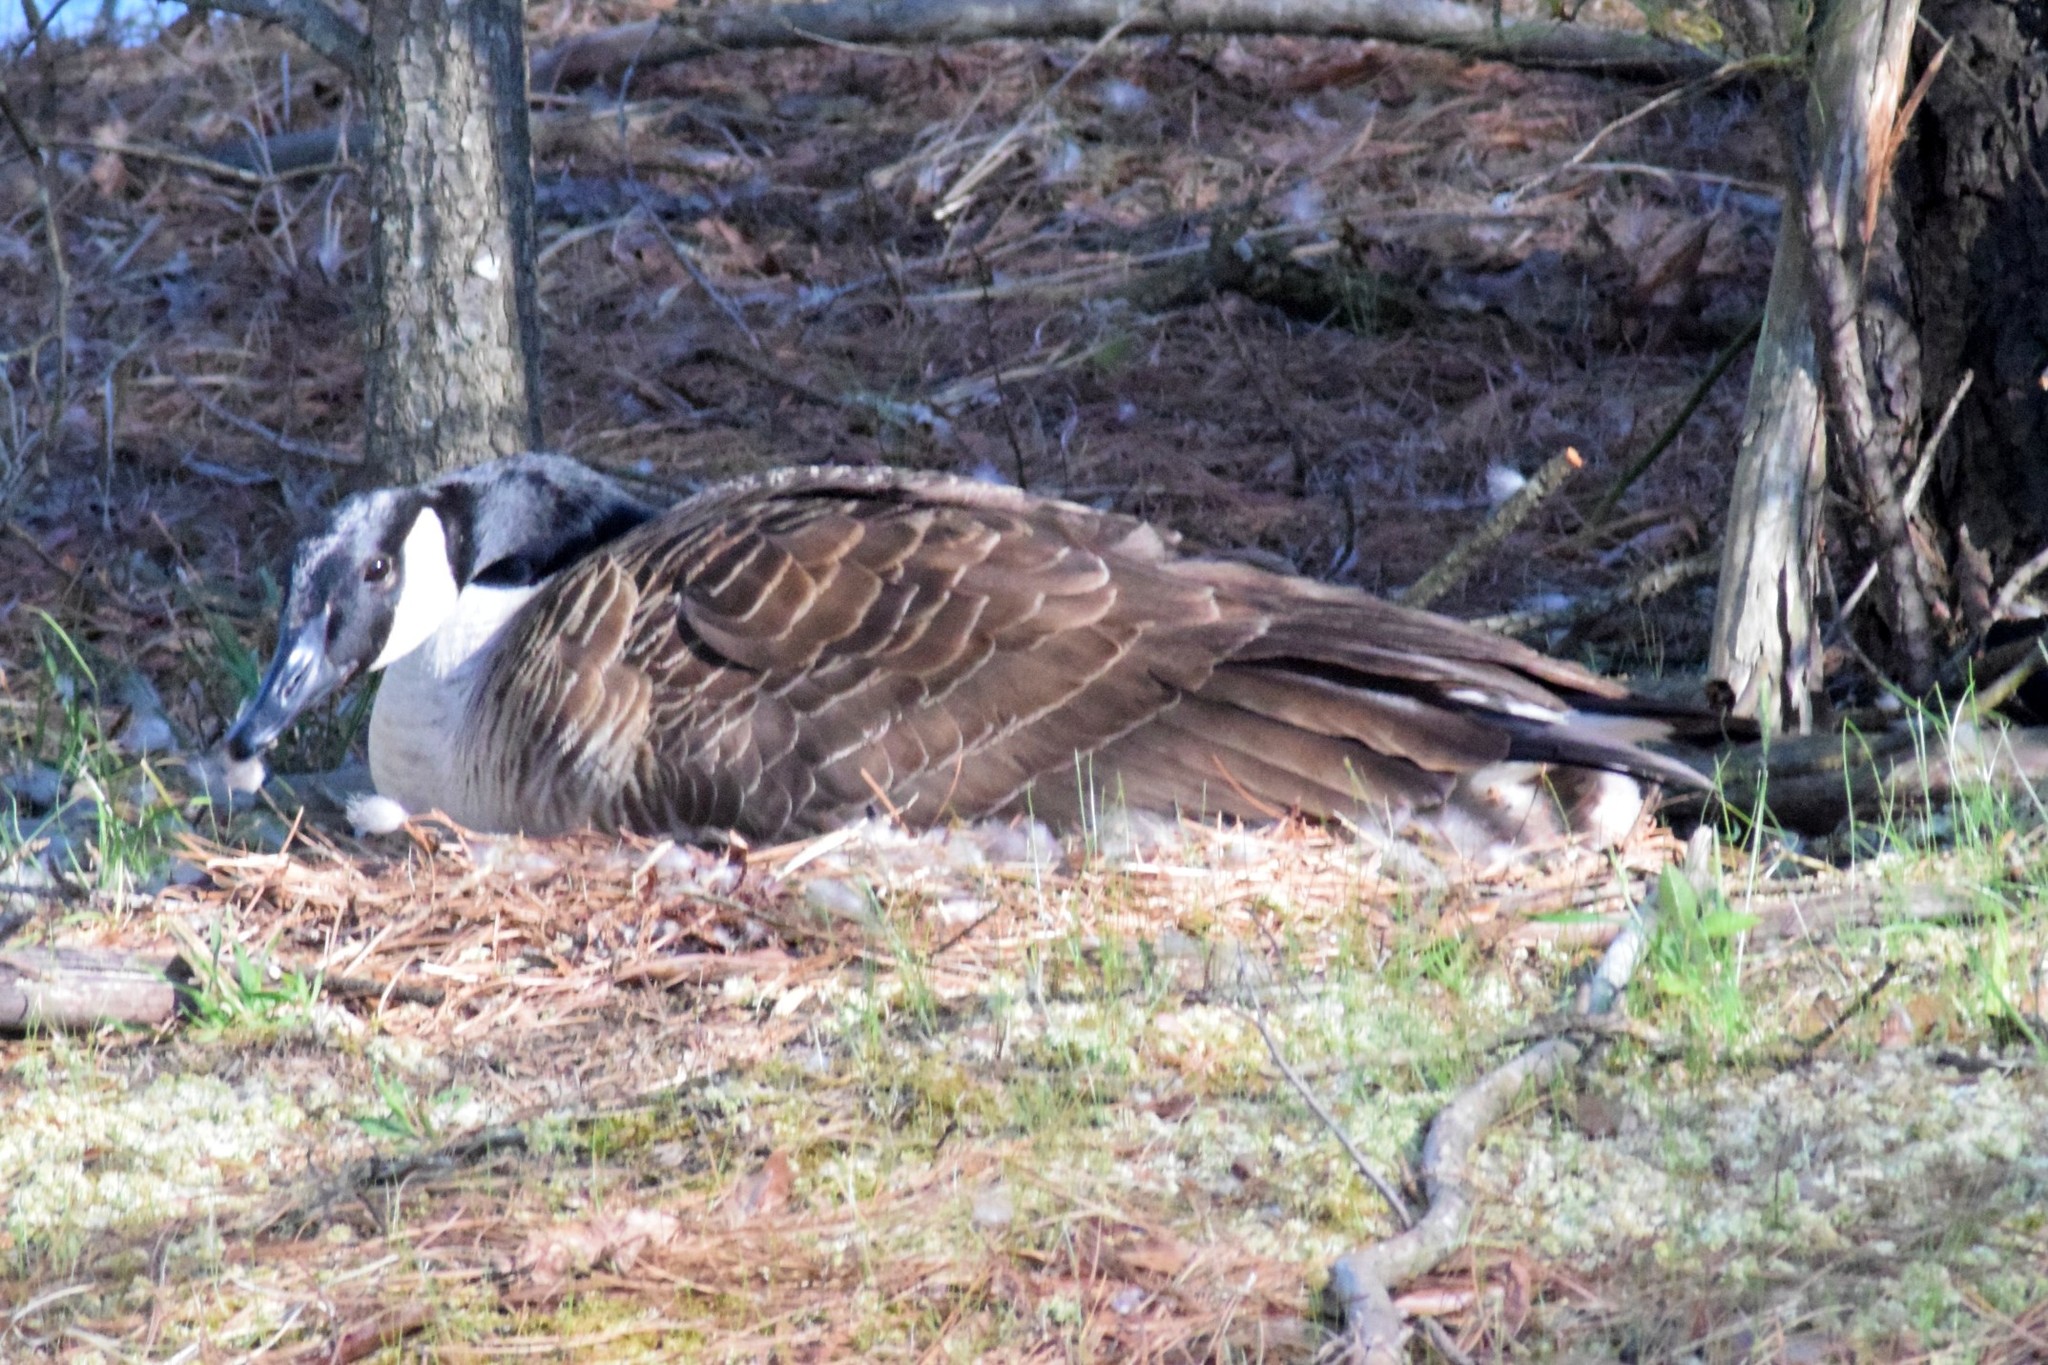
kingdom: Animalia
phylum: Chordata
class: Aves
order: Anseriformes
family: Anatidae
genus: Branta
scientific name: Branta canadensis
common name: Canada goose
